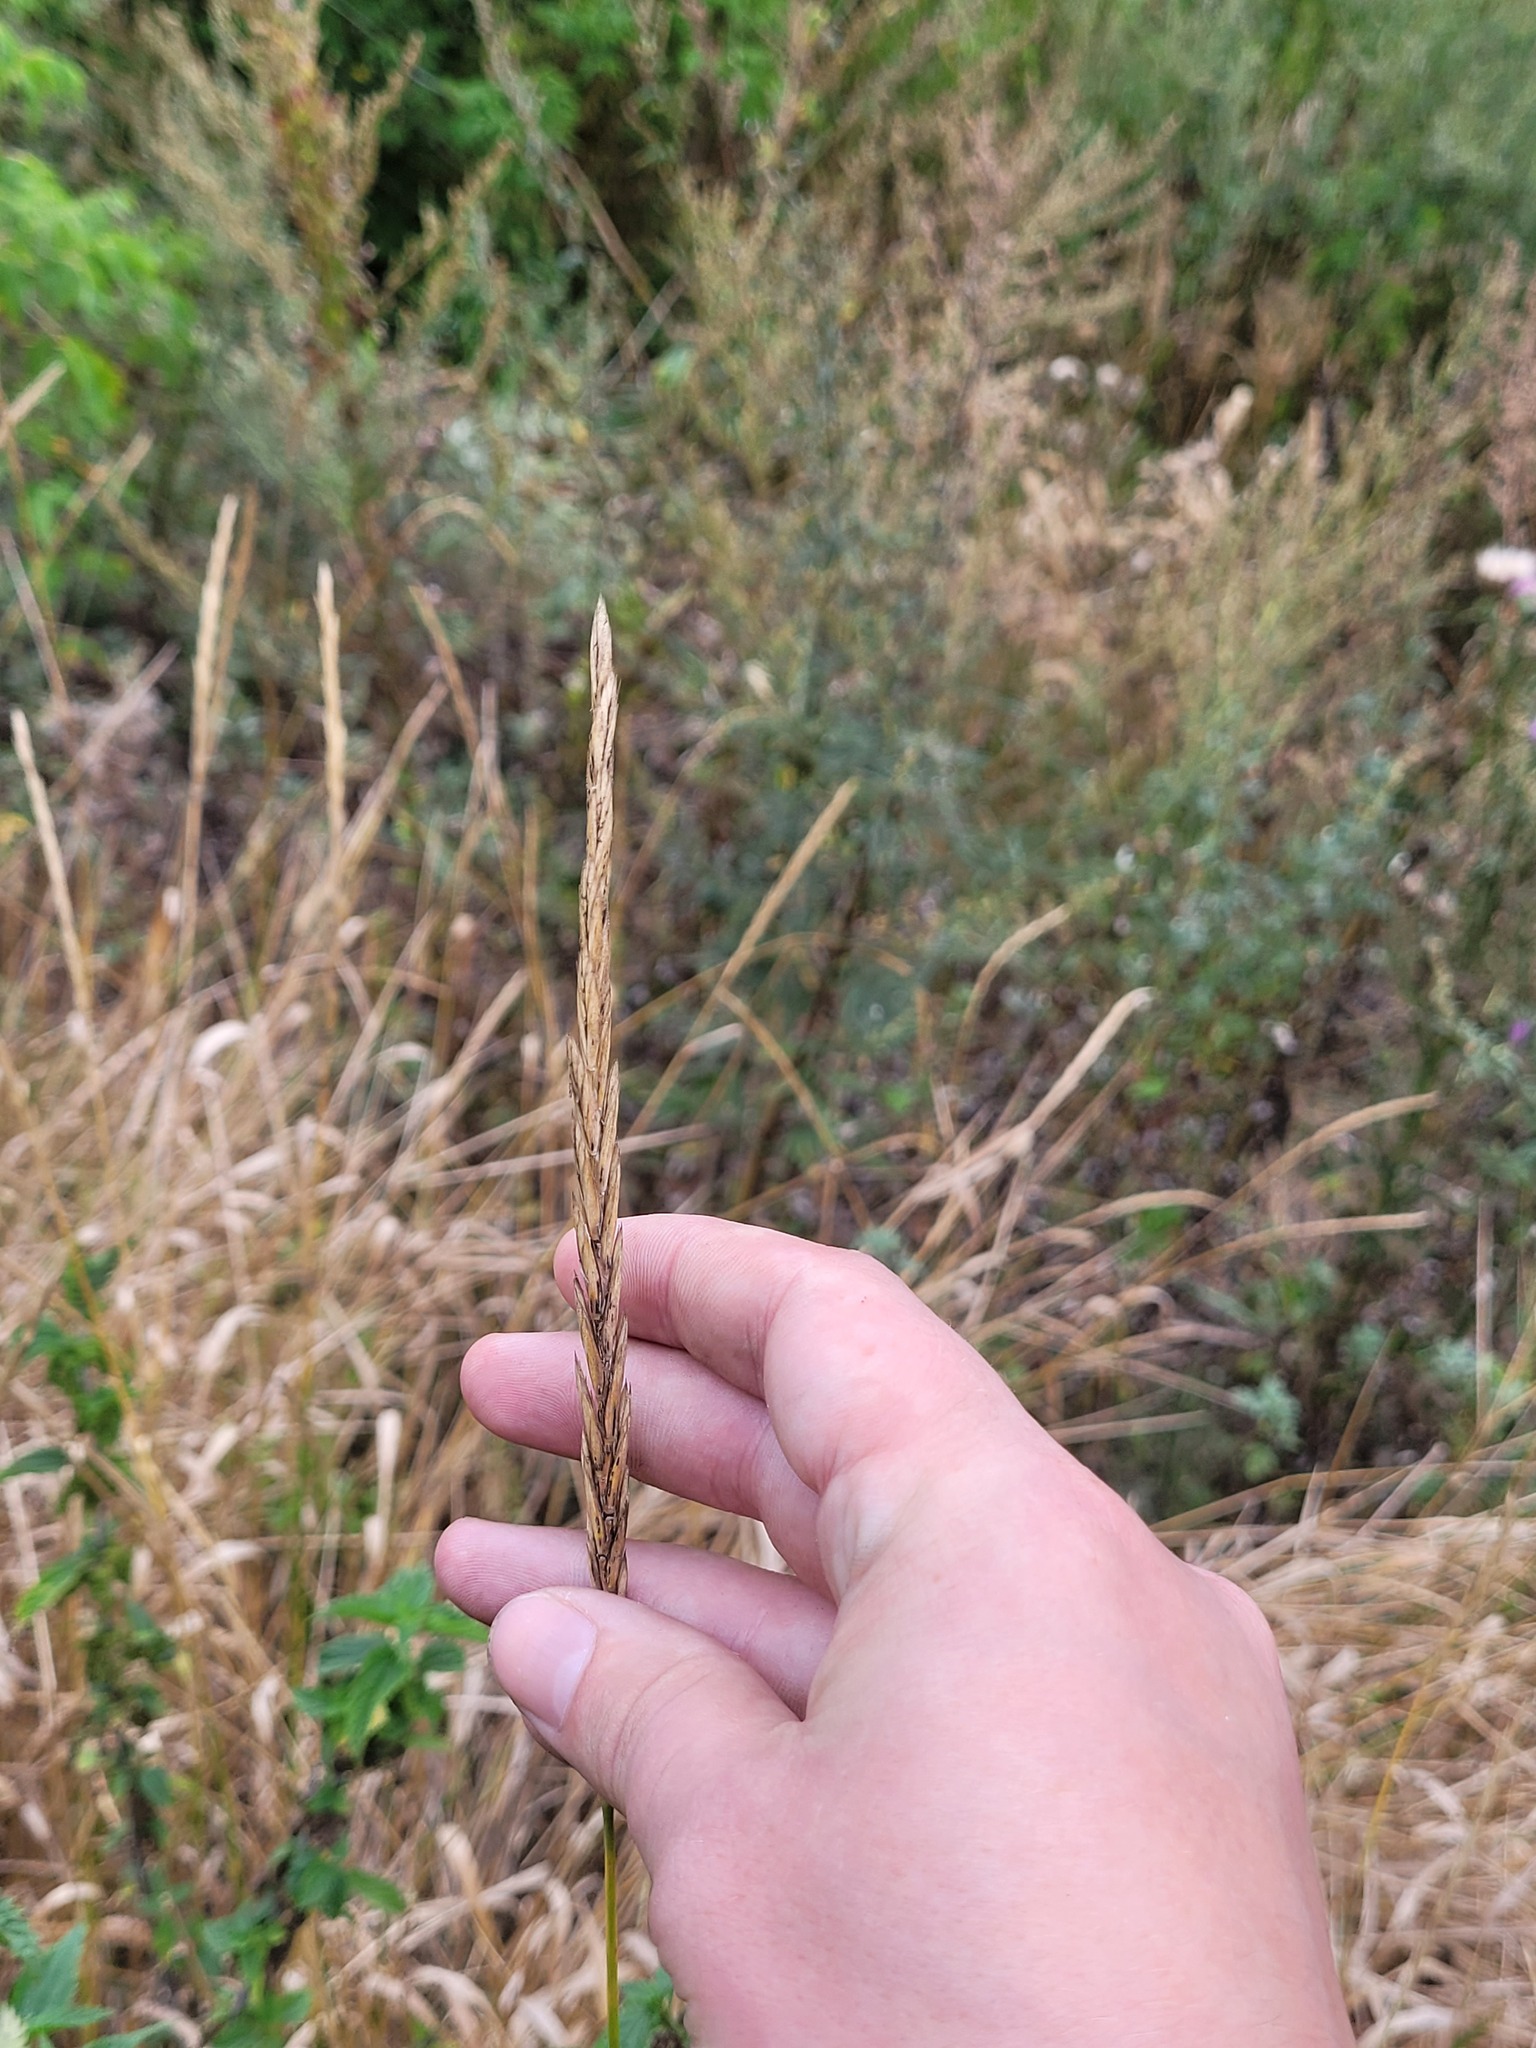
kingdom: Plantae
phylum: Tracheophyta
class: Liliopsida
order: Poales
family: Poaceae
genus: Elymus
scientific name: Elymus repens
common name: Quackgrass
